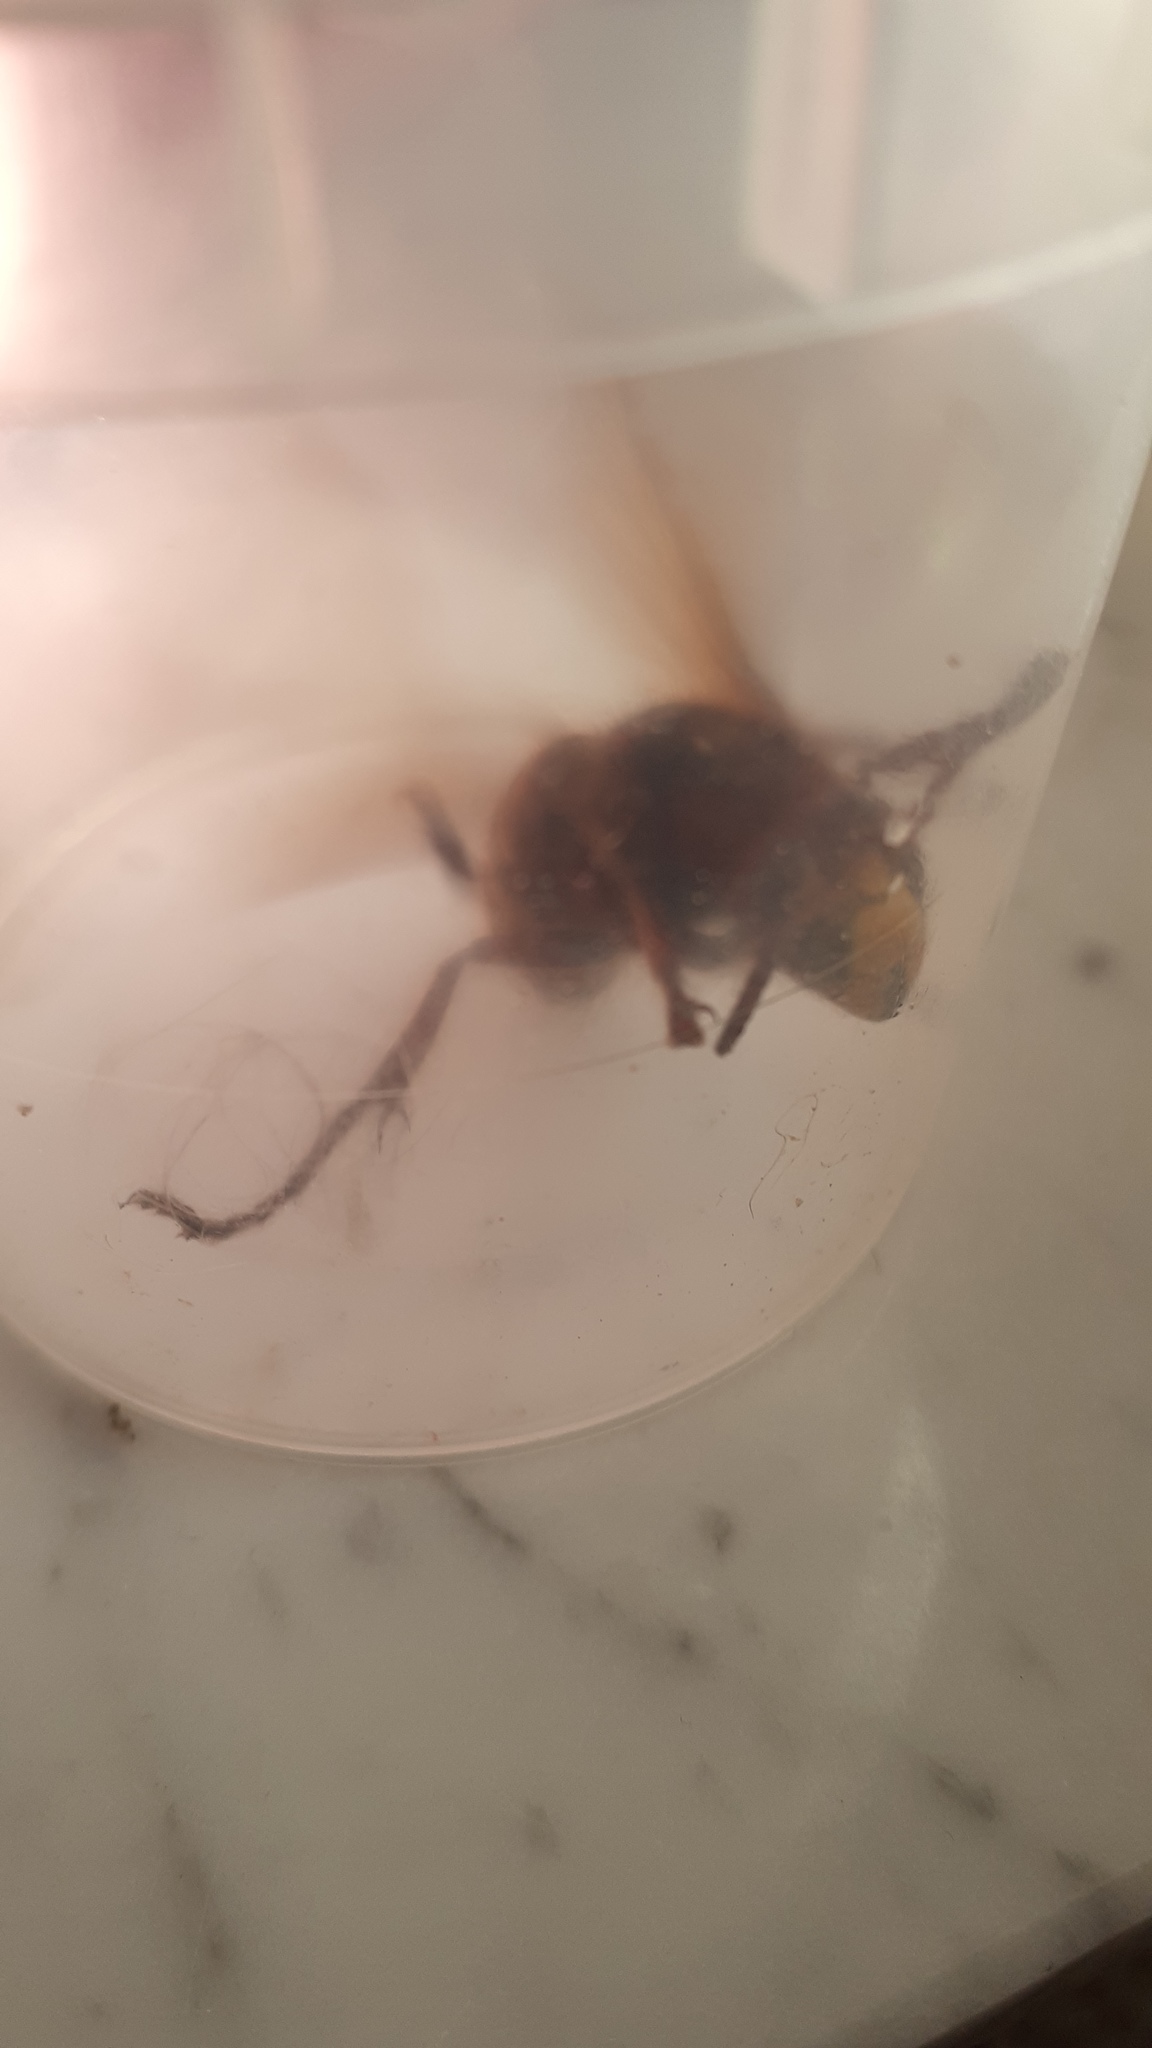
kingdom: Animalia
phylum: Arthropoda
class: Insecta
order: Hymenoptera
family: Vespidae
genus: Vespa
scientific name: Vespa crabro
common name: Hornet
